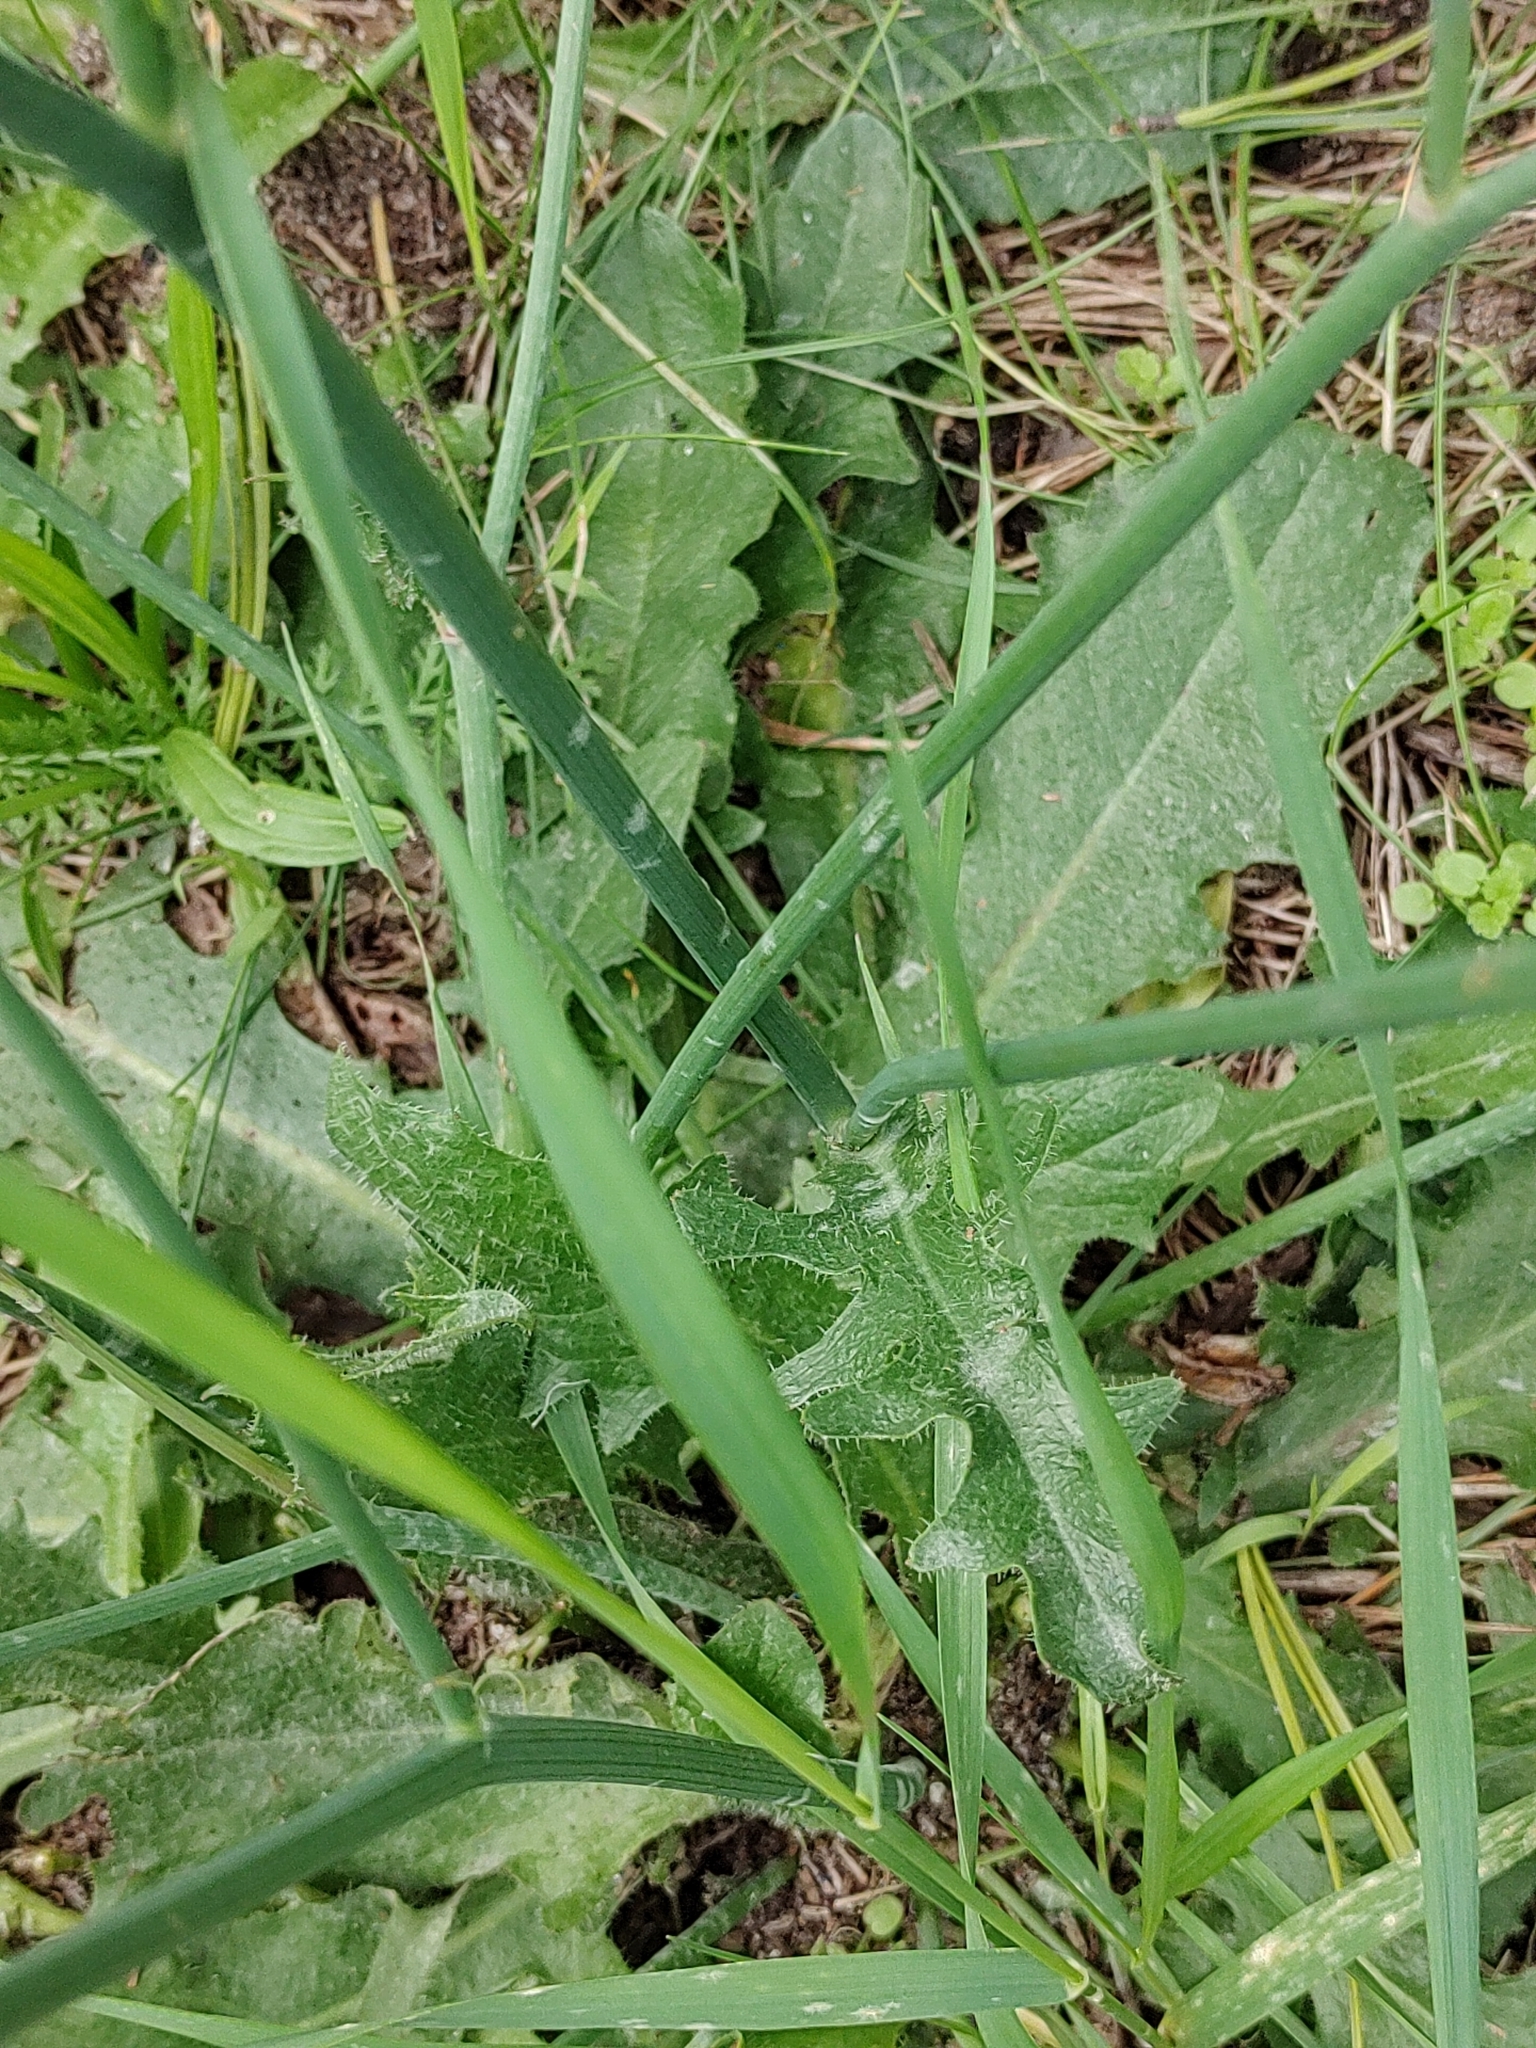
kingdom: Plantae
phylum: Tracheophyta
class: Magnoliopsida
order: Asterales
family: Asteraceae
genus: Hypochaeris
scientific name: Hypochaeris radicata
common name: Flatweed
